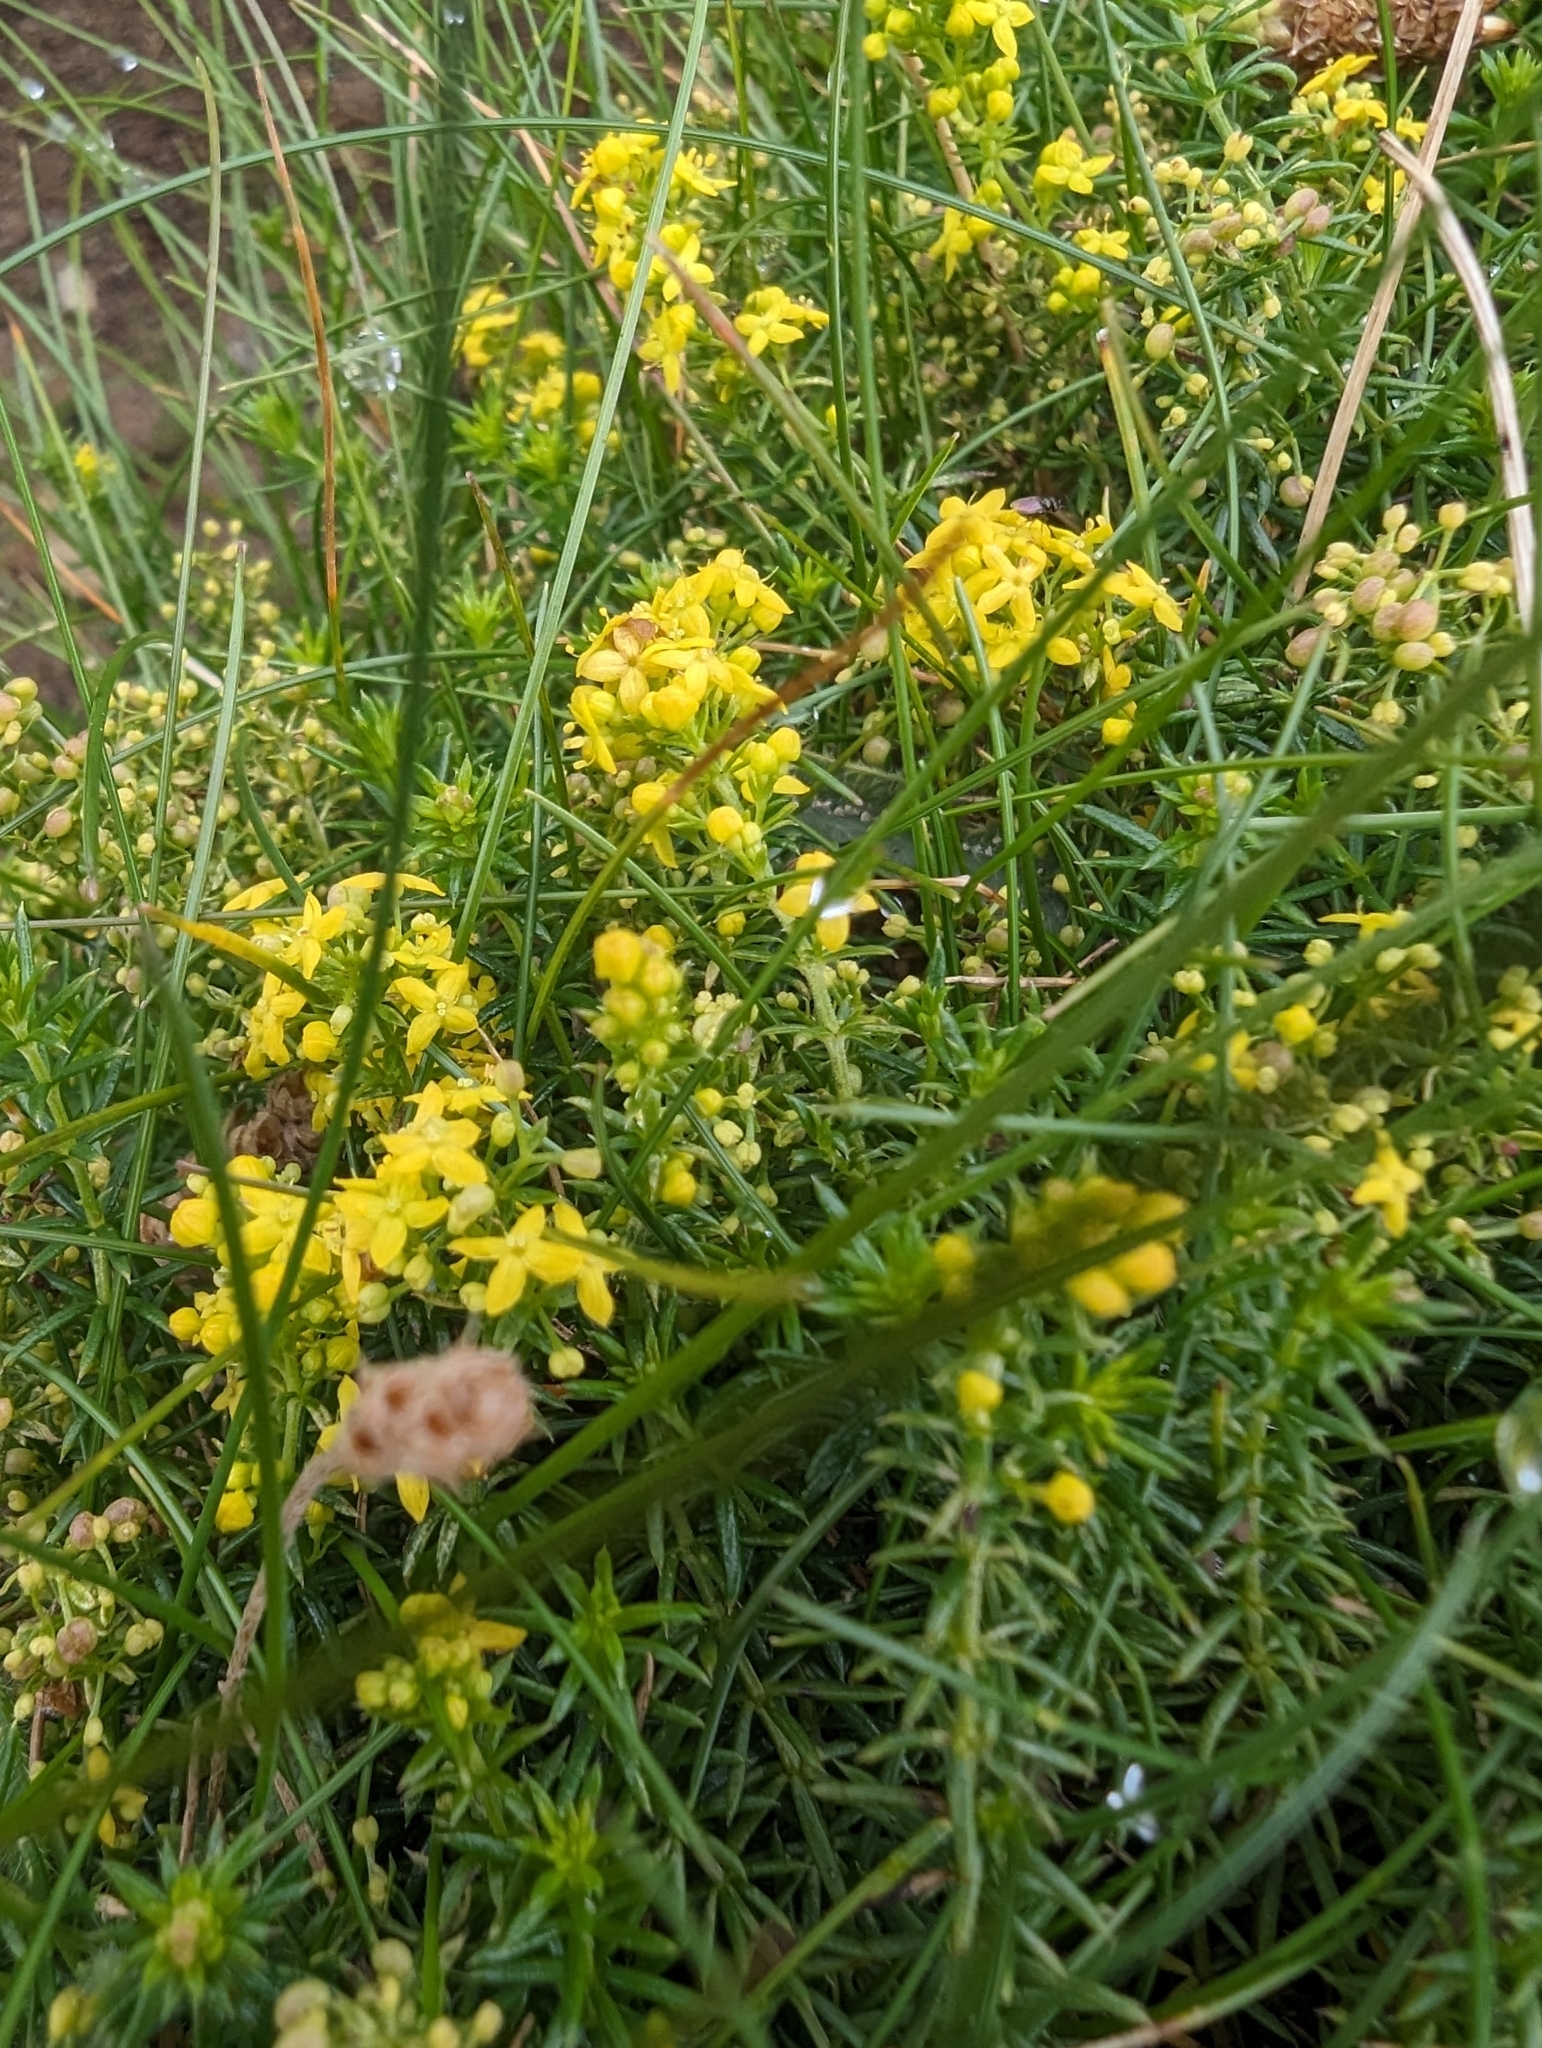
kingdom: Plantae
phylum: Tracheophyta
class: Magnoliopsida
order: Gentianales
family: Rubiaceae
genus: Galium
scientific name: Galium verum
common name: Lady's bedstraw
